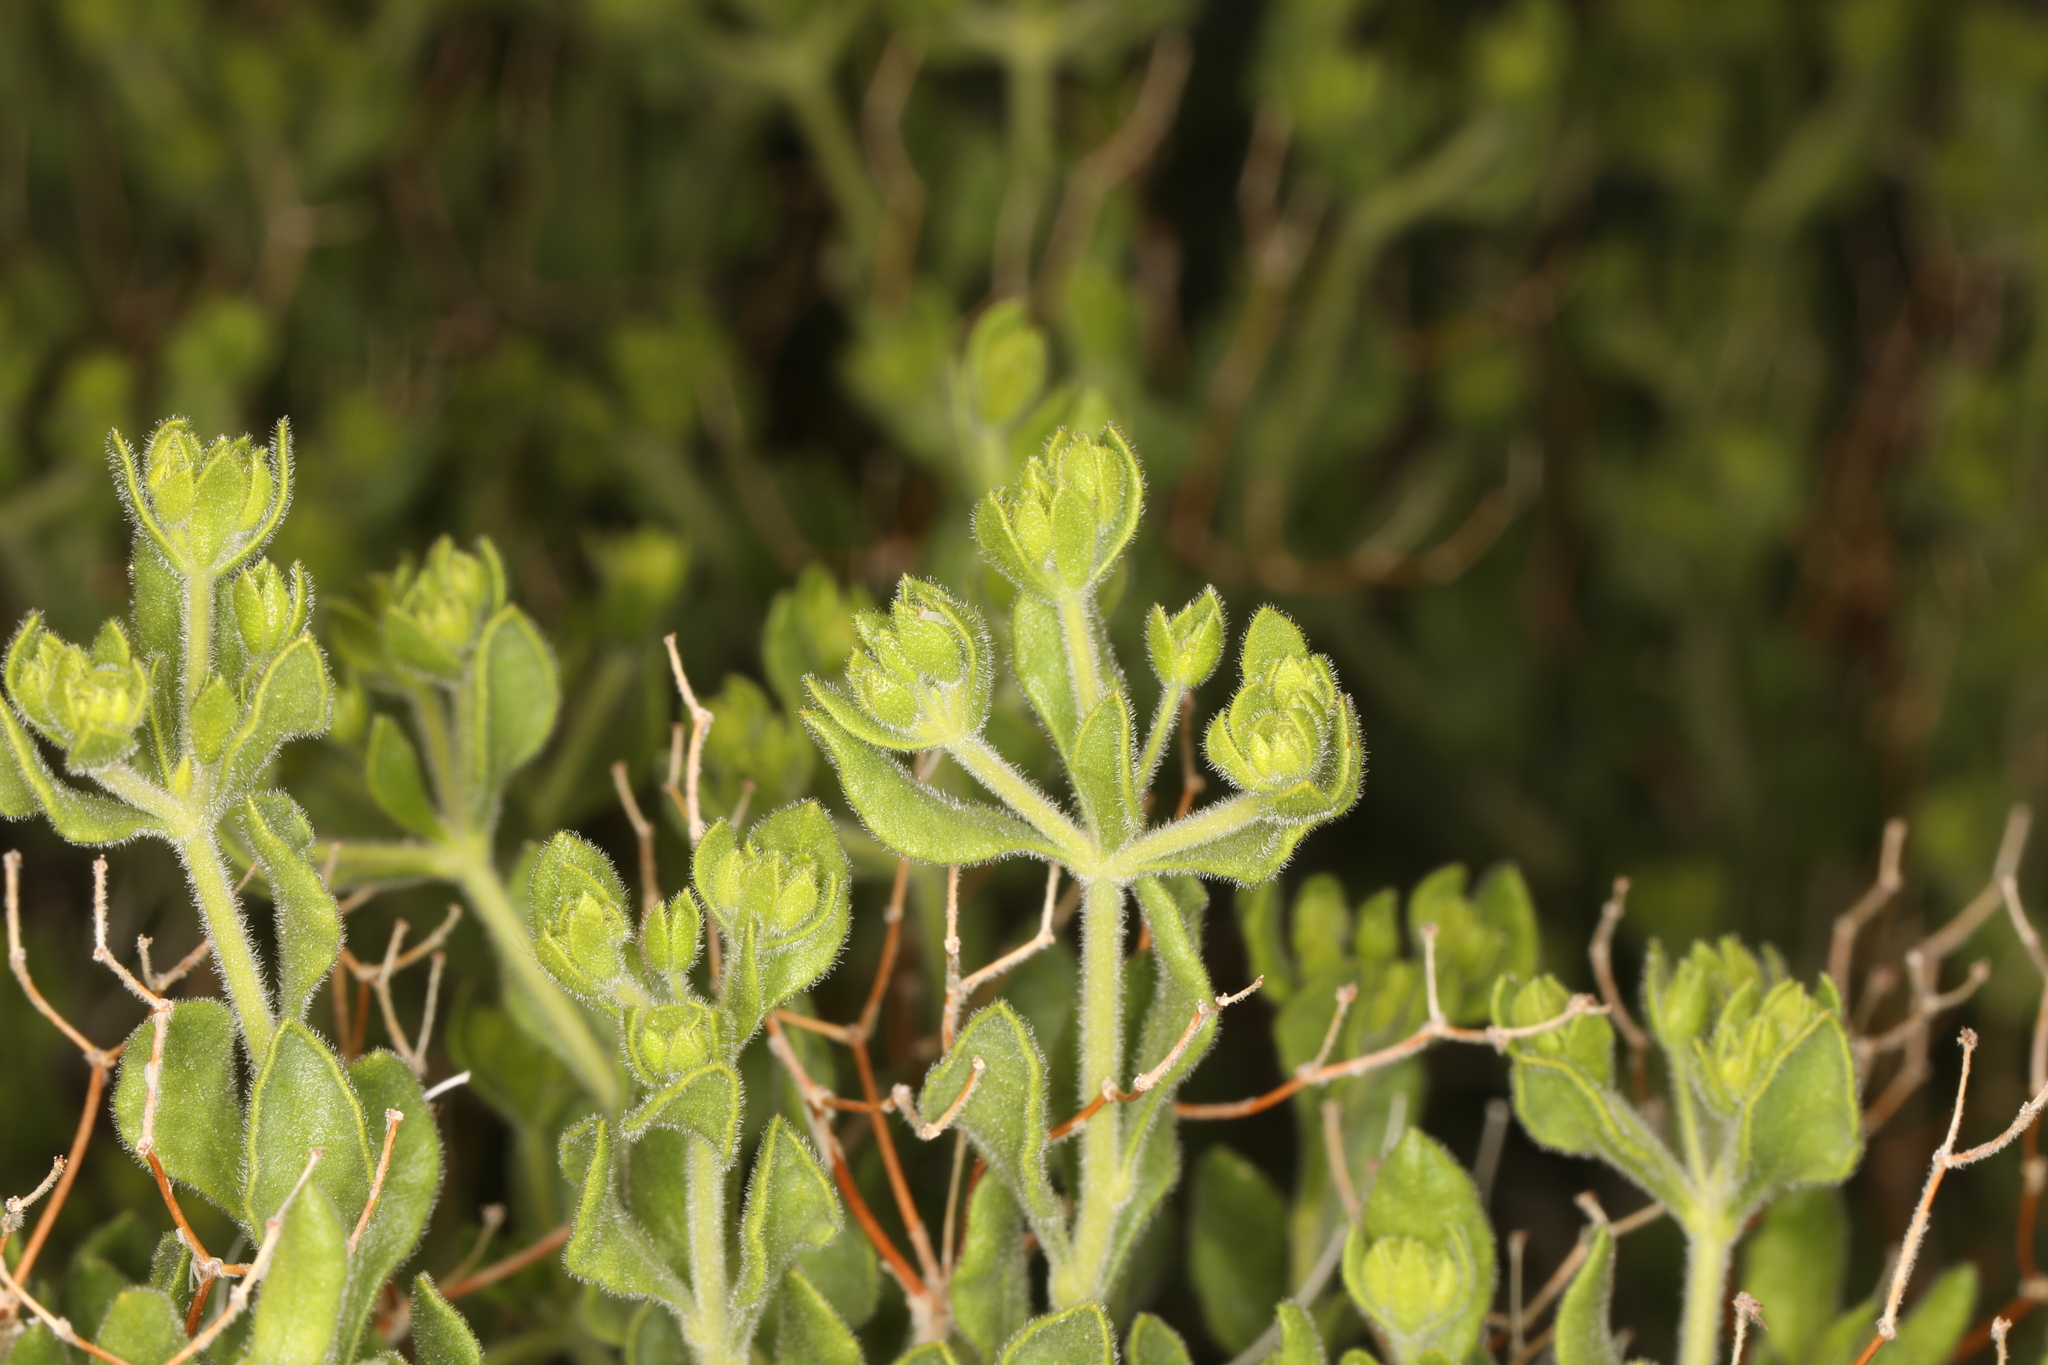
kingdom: Plantae
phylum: Tracheophyta
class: Magnoliopsida
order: Caryophyllales
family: Polygonaceae
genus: Dedeckera
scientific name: Dedeckera eurekensis
